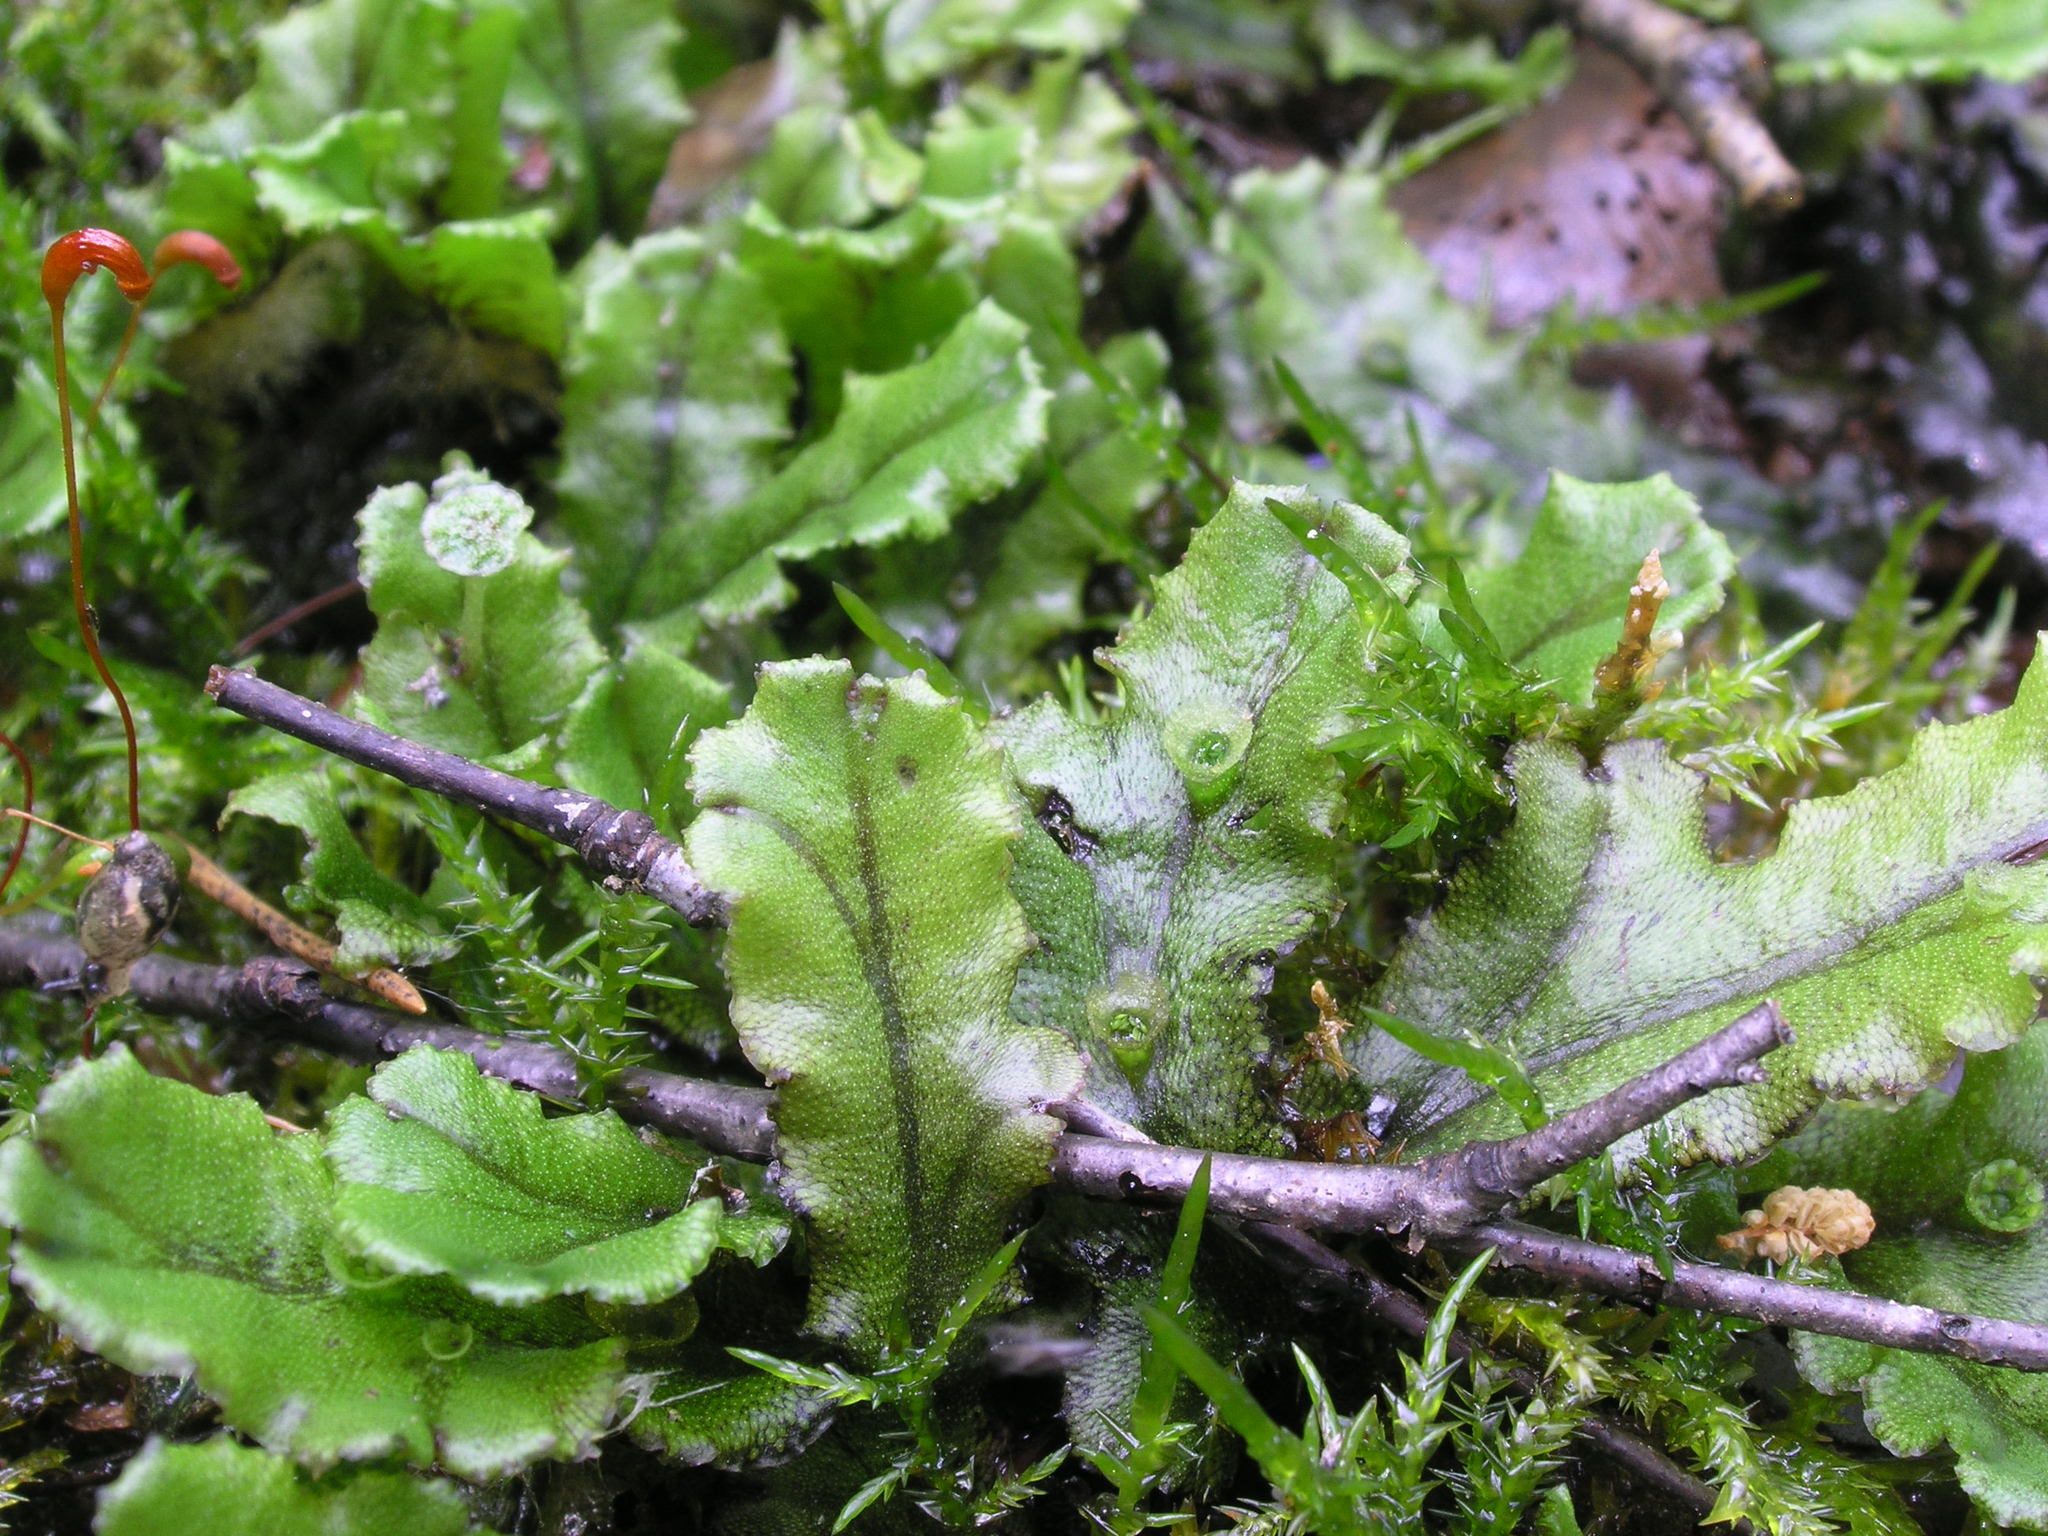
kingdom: Plantae
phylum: Marchantiophyta
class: Marchantiopsida
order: Marchantiales
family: Marchantiaceae
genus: Marchantia
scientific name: Marchantia polymorpha
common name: Common liverwort
